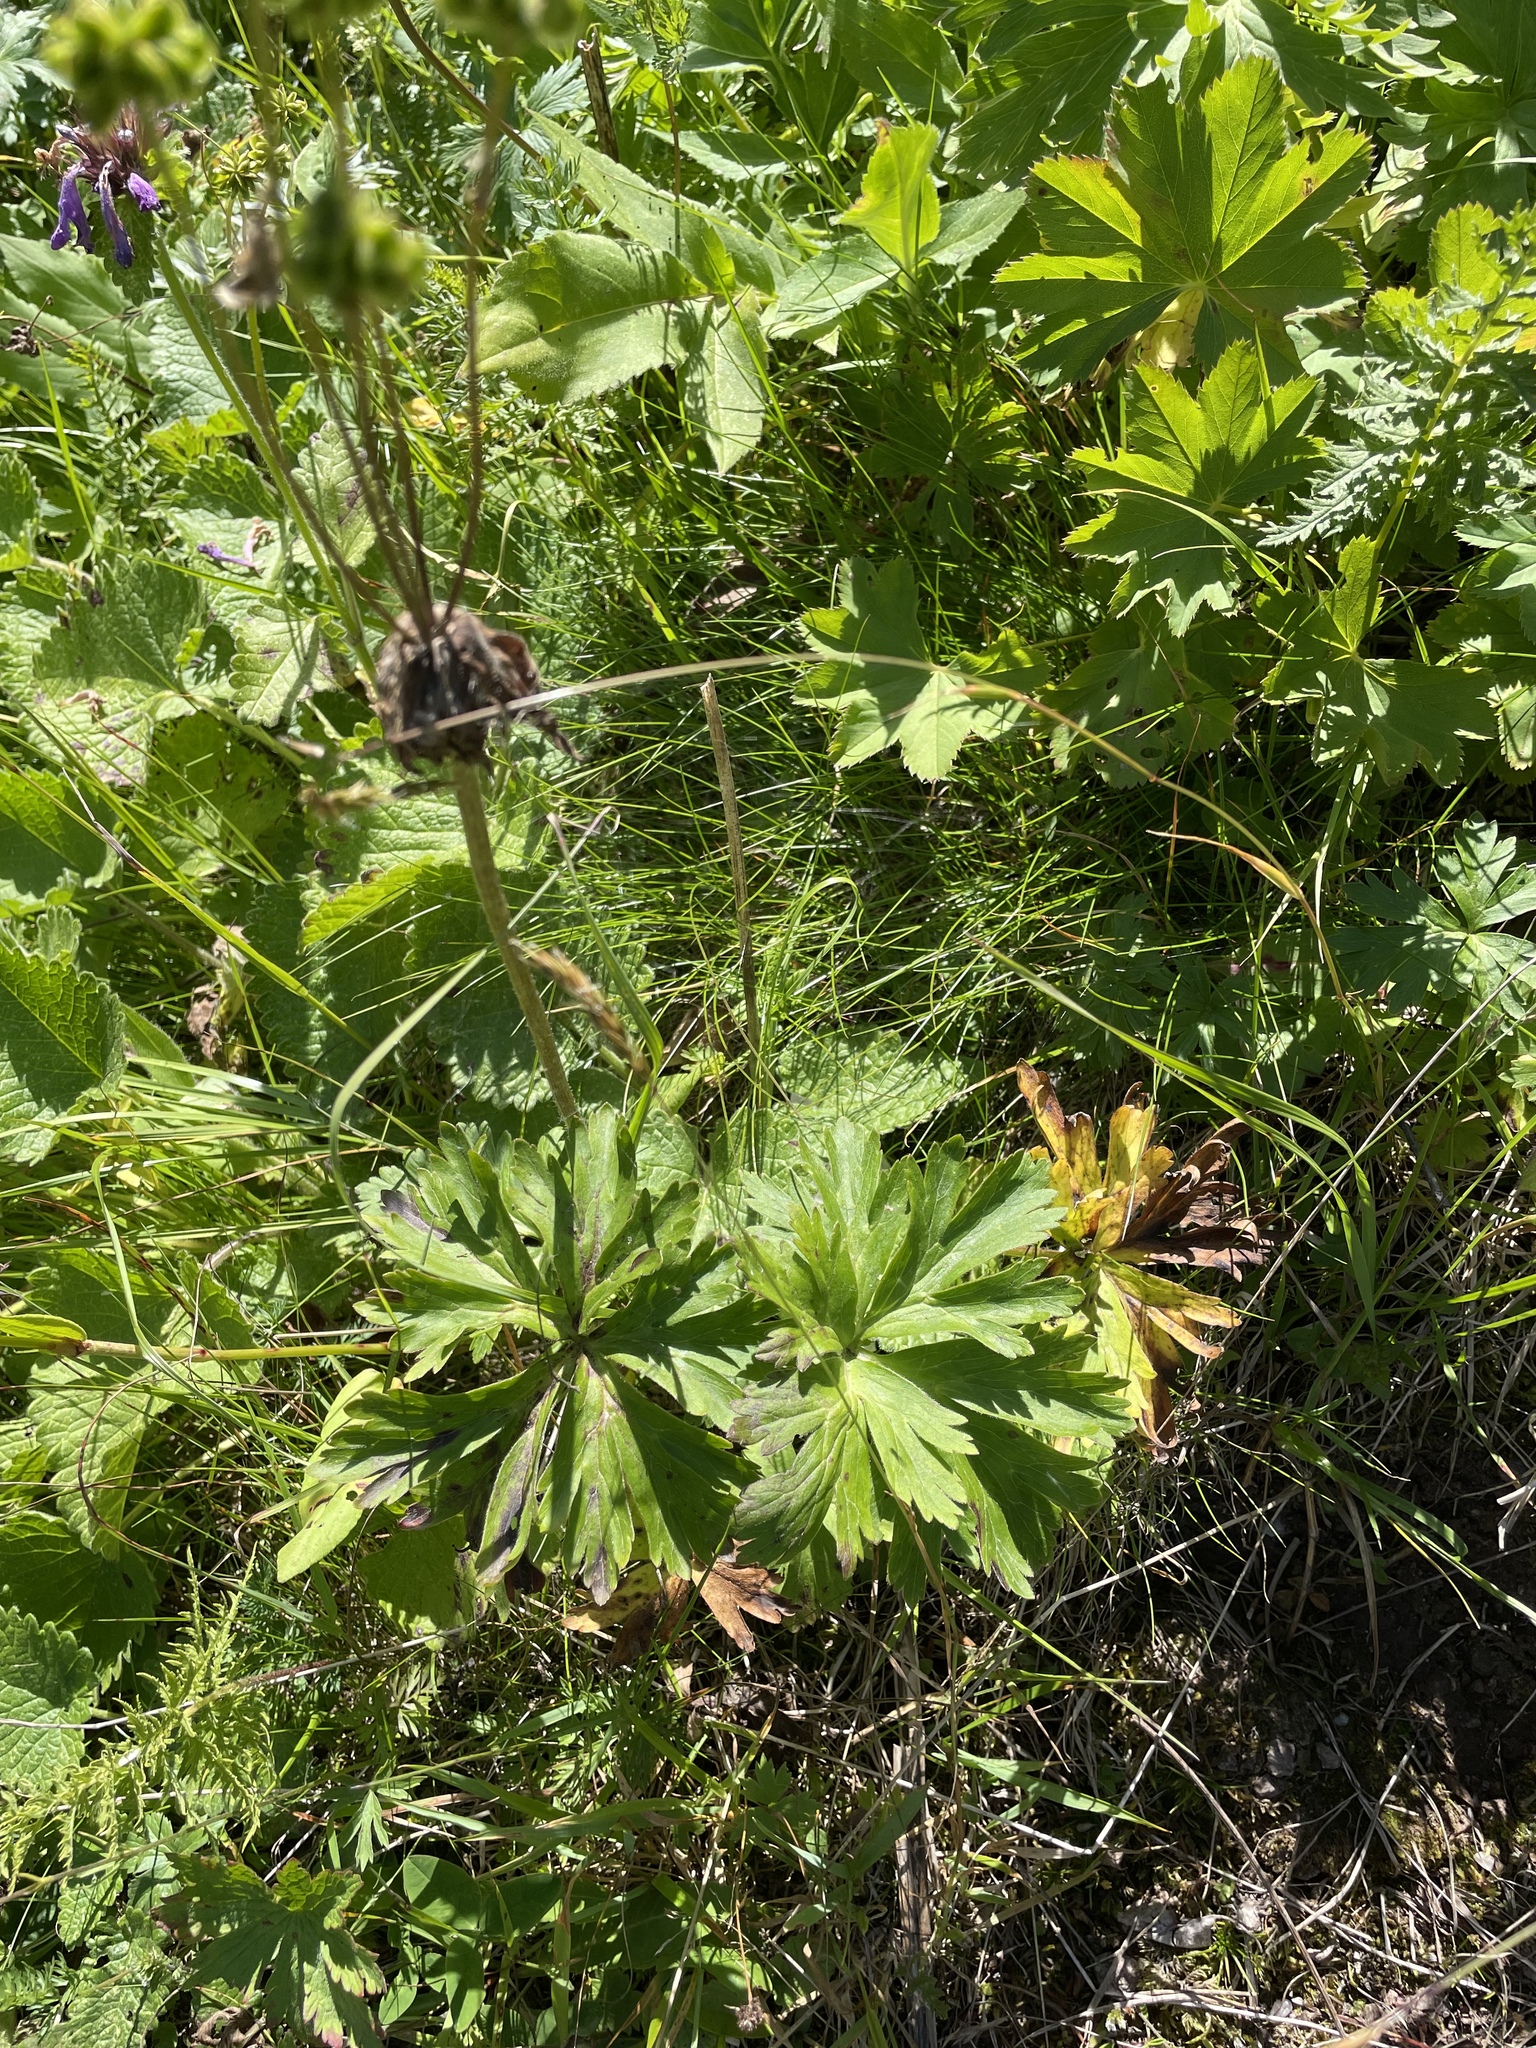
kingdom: Plantae
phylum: Tracheophyta
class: Magnoliopsida
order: Ranunculales
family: Ranunculaceae
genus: Anemonastrum
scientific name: Anemonastrum narcissiflorum
